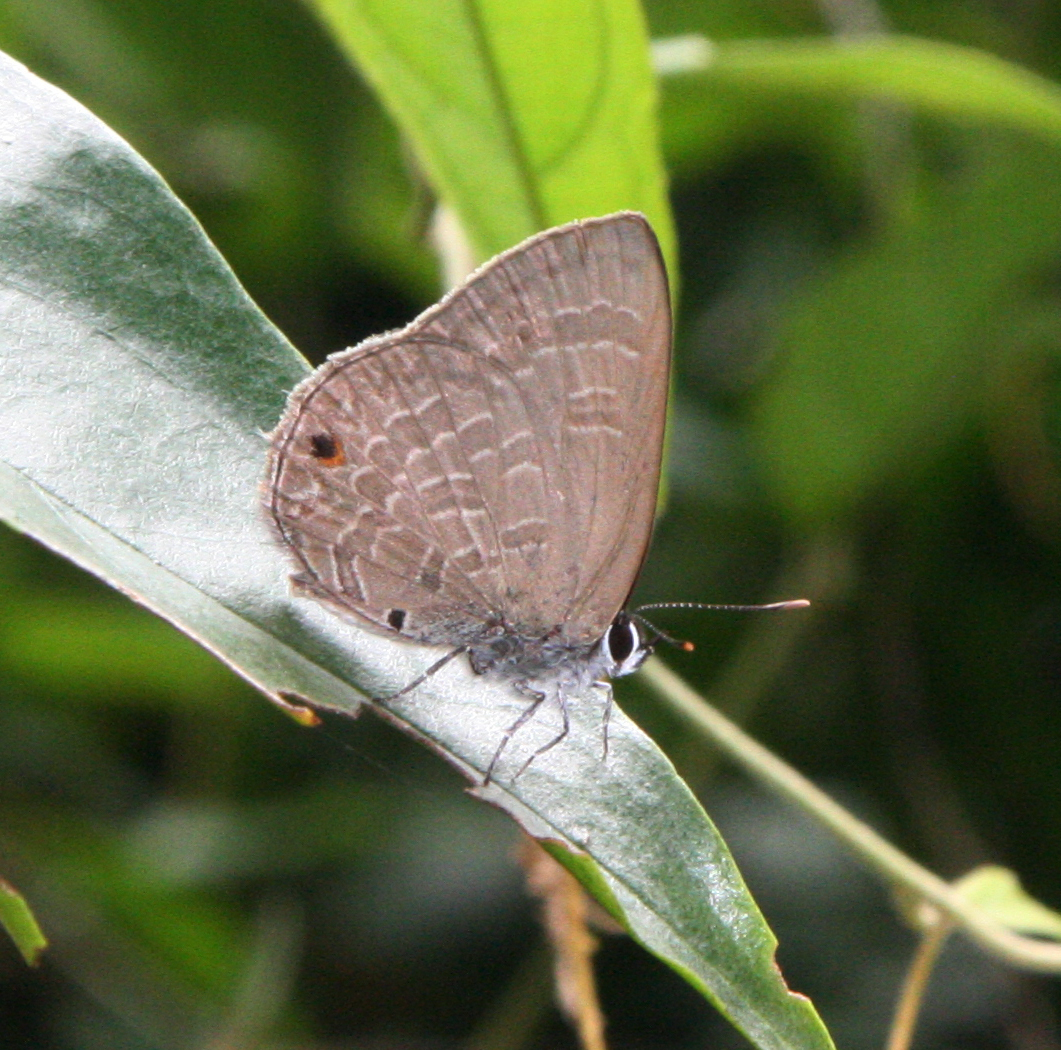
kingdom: Animalia
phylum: Arthropoda
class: Insecta
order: Lepidoptera
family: Lycaenidae
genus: Anthene
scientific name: Anthene emolus
